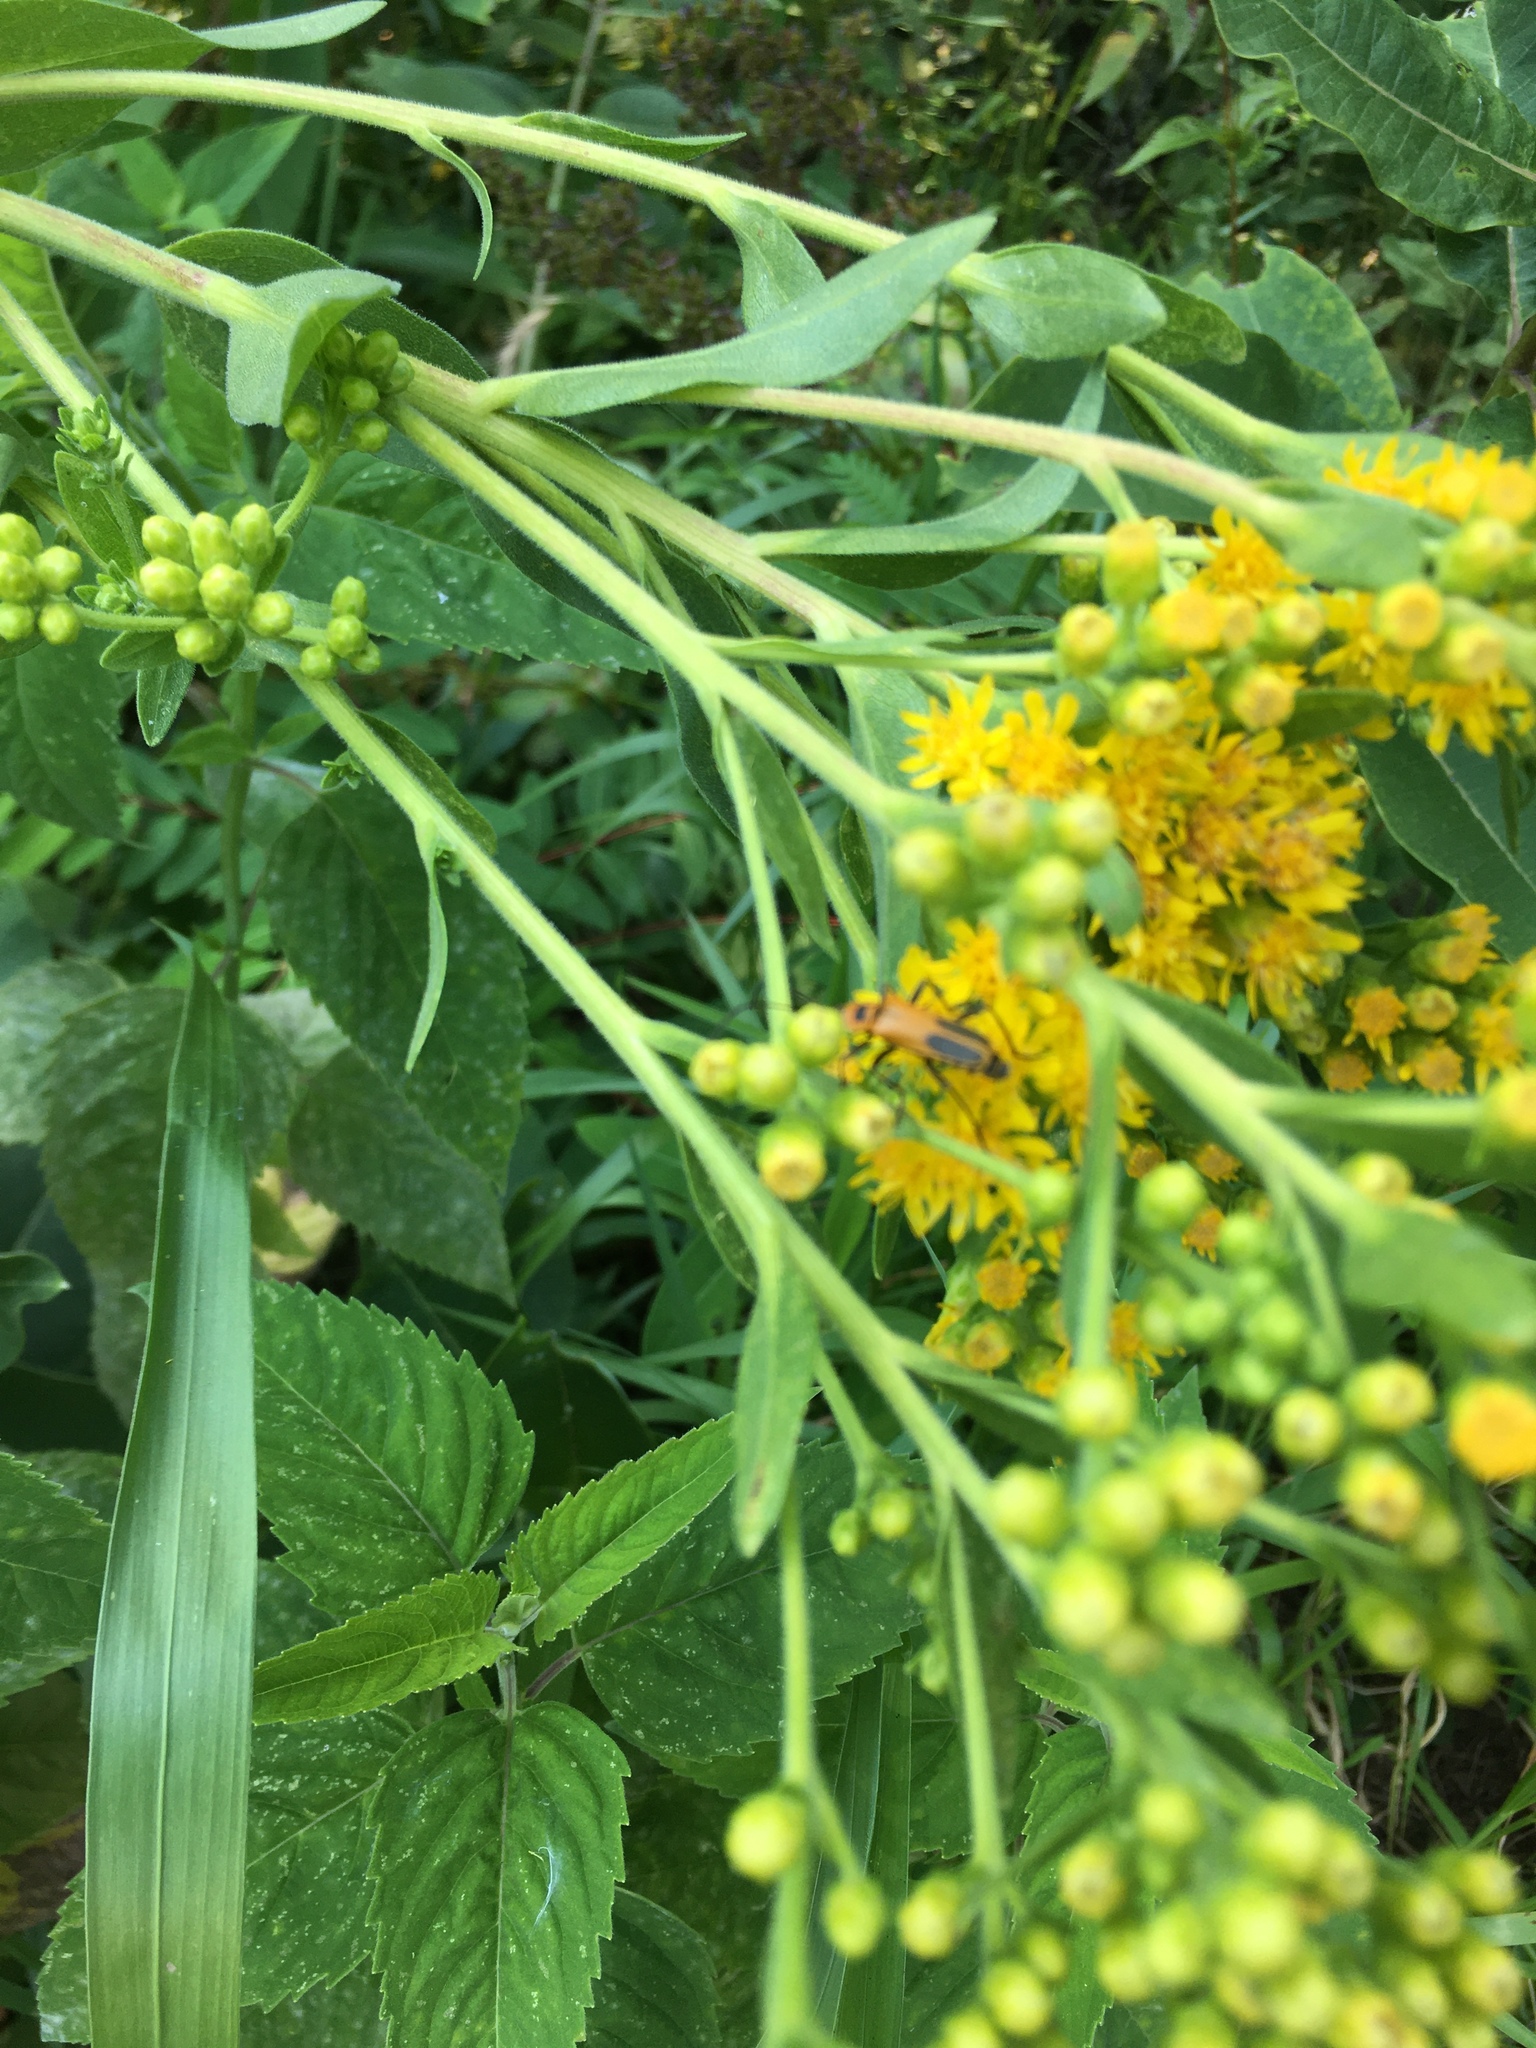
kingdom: Animalia
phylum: Arthropoda
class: Insecta
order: Coleoptera
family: Cantharidae
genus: Chauliognathus
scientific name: Chauliognathus pensylvanicus
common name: Goldenrod soldier beetle
